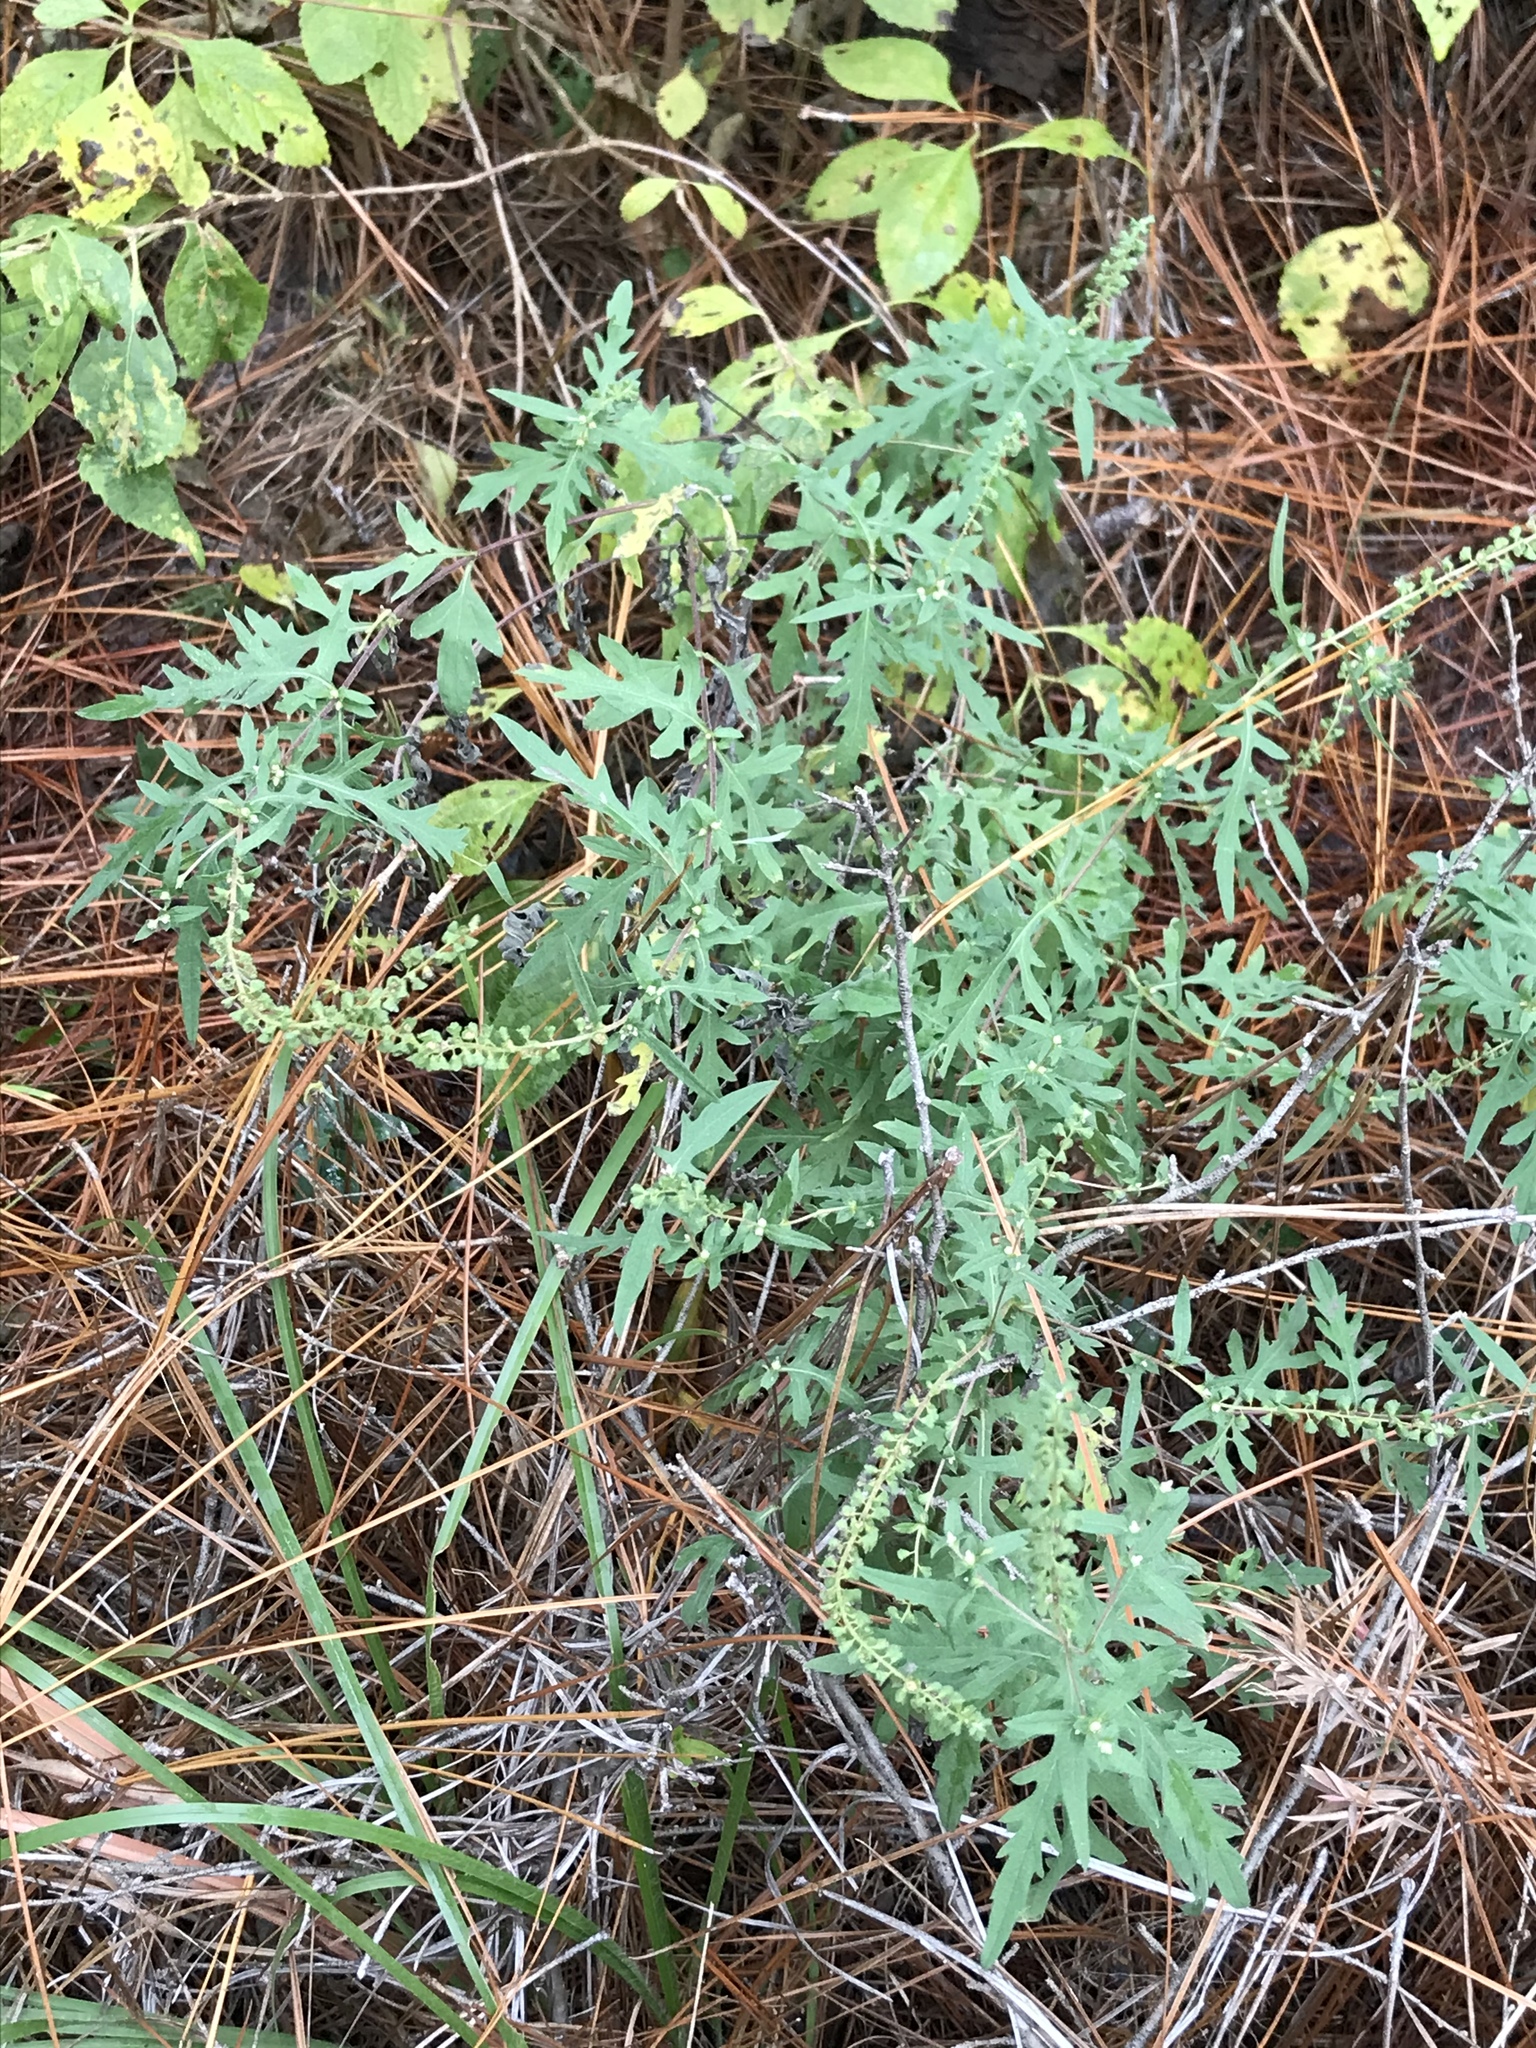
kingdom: Plantae
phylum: Tracheophyta
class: Magnoliopsida
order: Asterales
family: Asteraceae
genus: Ambrosia
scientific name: Ambrosia psilostachya
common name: Perennial ragweed
